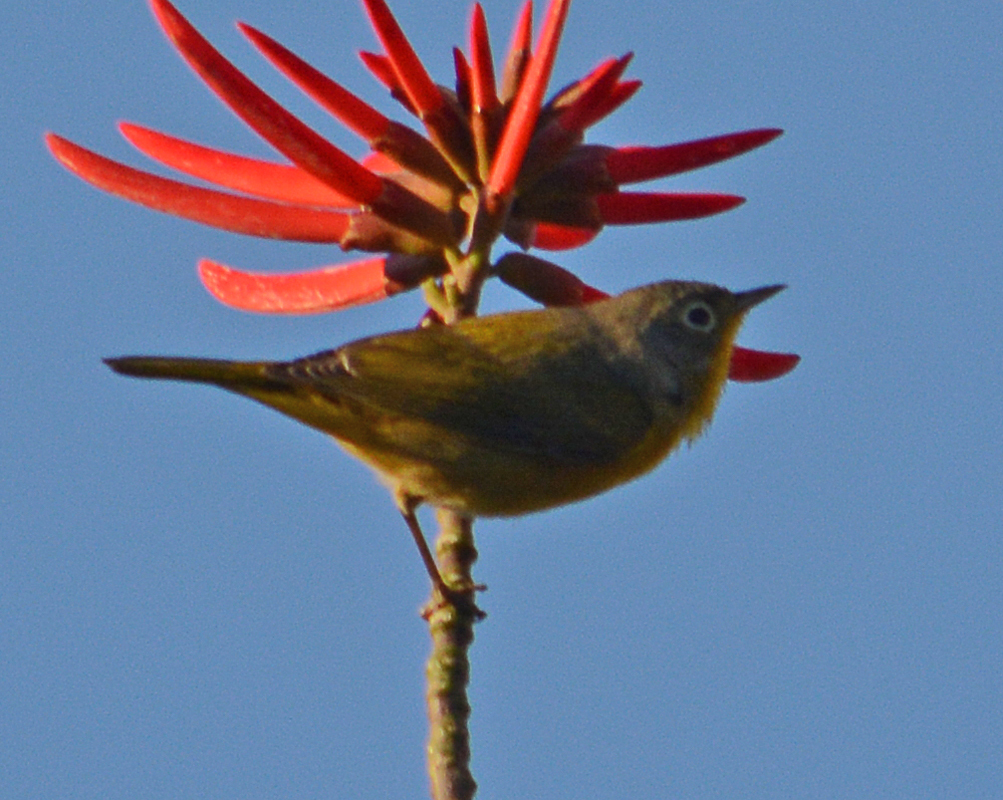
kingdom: Animalia
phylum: Chordata
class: Aves
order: Passeriformes
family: Parulidae
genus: Leiothlypis
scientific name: Leiothlypis ruficapilla
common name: Nashville warbler
